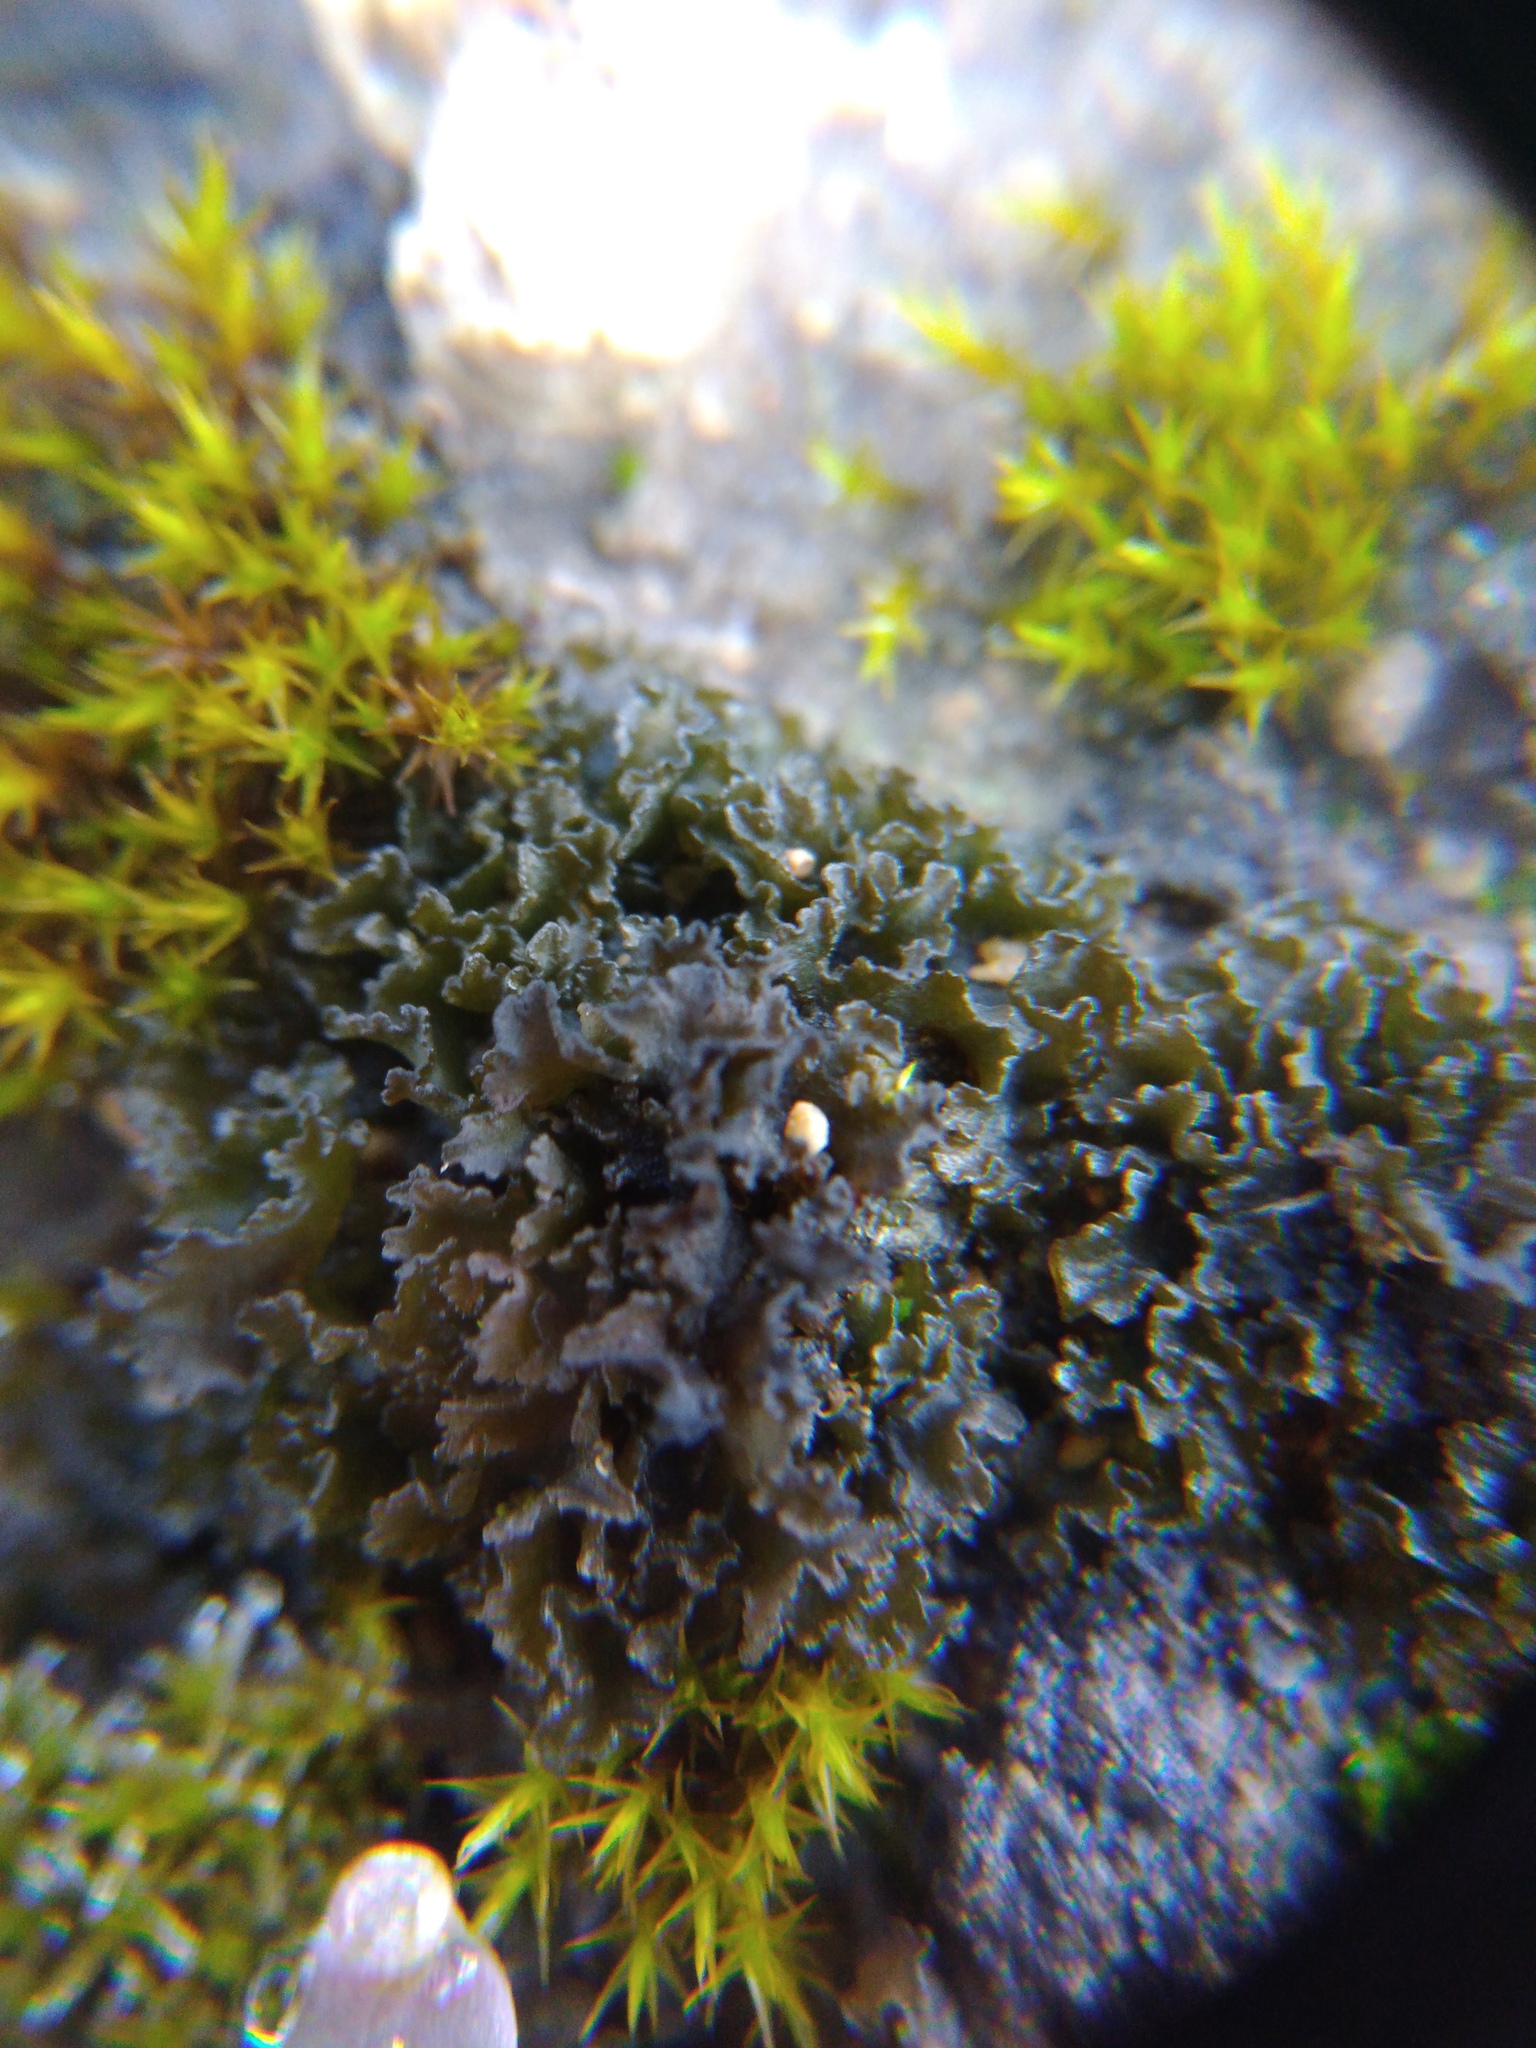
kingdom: Fungi
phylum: Ascomycota
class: Lecanoromycetes
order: Peltigerales
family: Collemataceae
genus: Lathagrium
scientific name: Lathagrium cristatum
